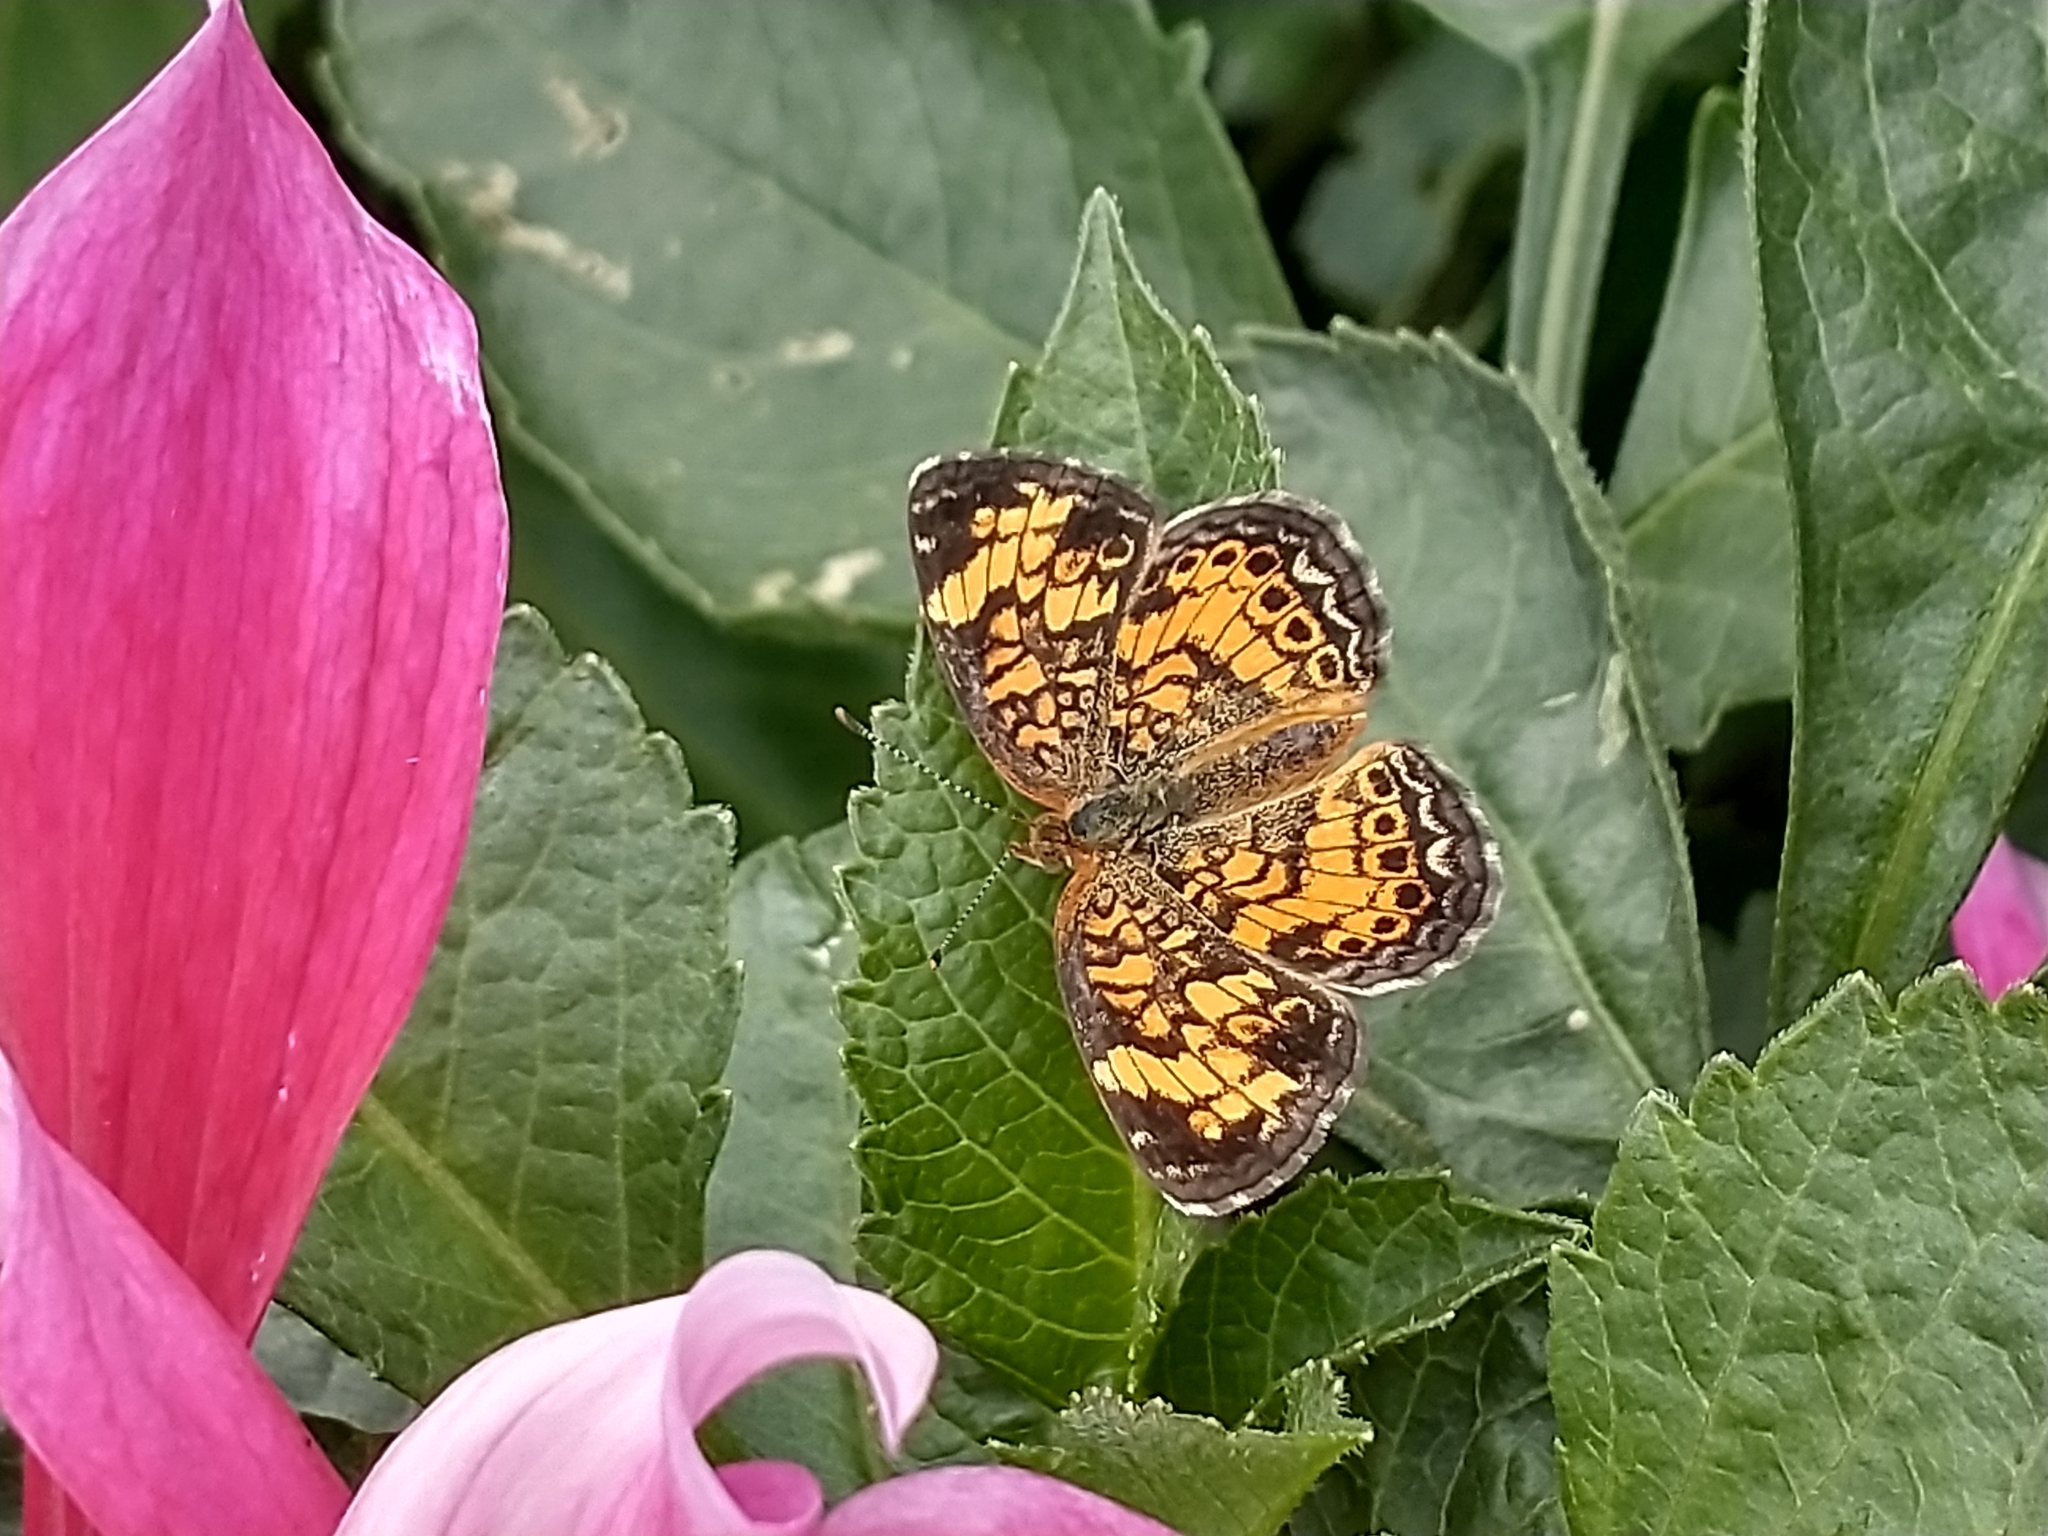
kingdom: Animalia
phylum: Arthropoda
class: Insecta
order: Lepidoptera
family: Nymphalidae
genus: Phyciodes
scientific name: Phyciodes tharos
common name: Pearl crescent
